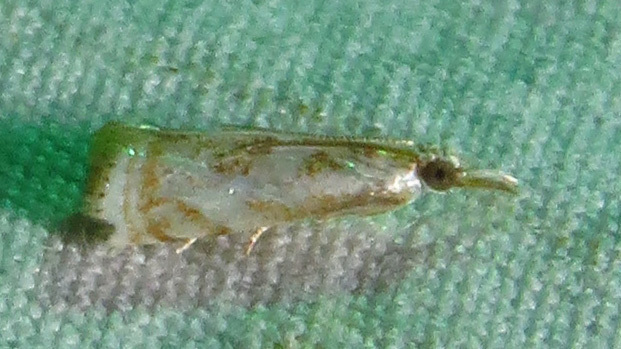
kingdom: Animalia
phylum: Arthropoda
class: Insecta
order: Lepidoptera
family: Crambidae
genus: Microcrambus
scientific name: Microcrambus elegans
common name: Elegant grass-veneer
